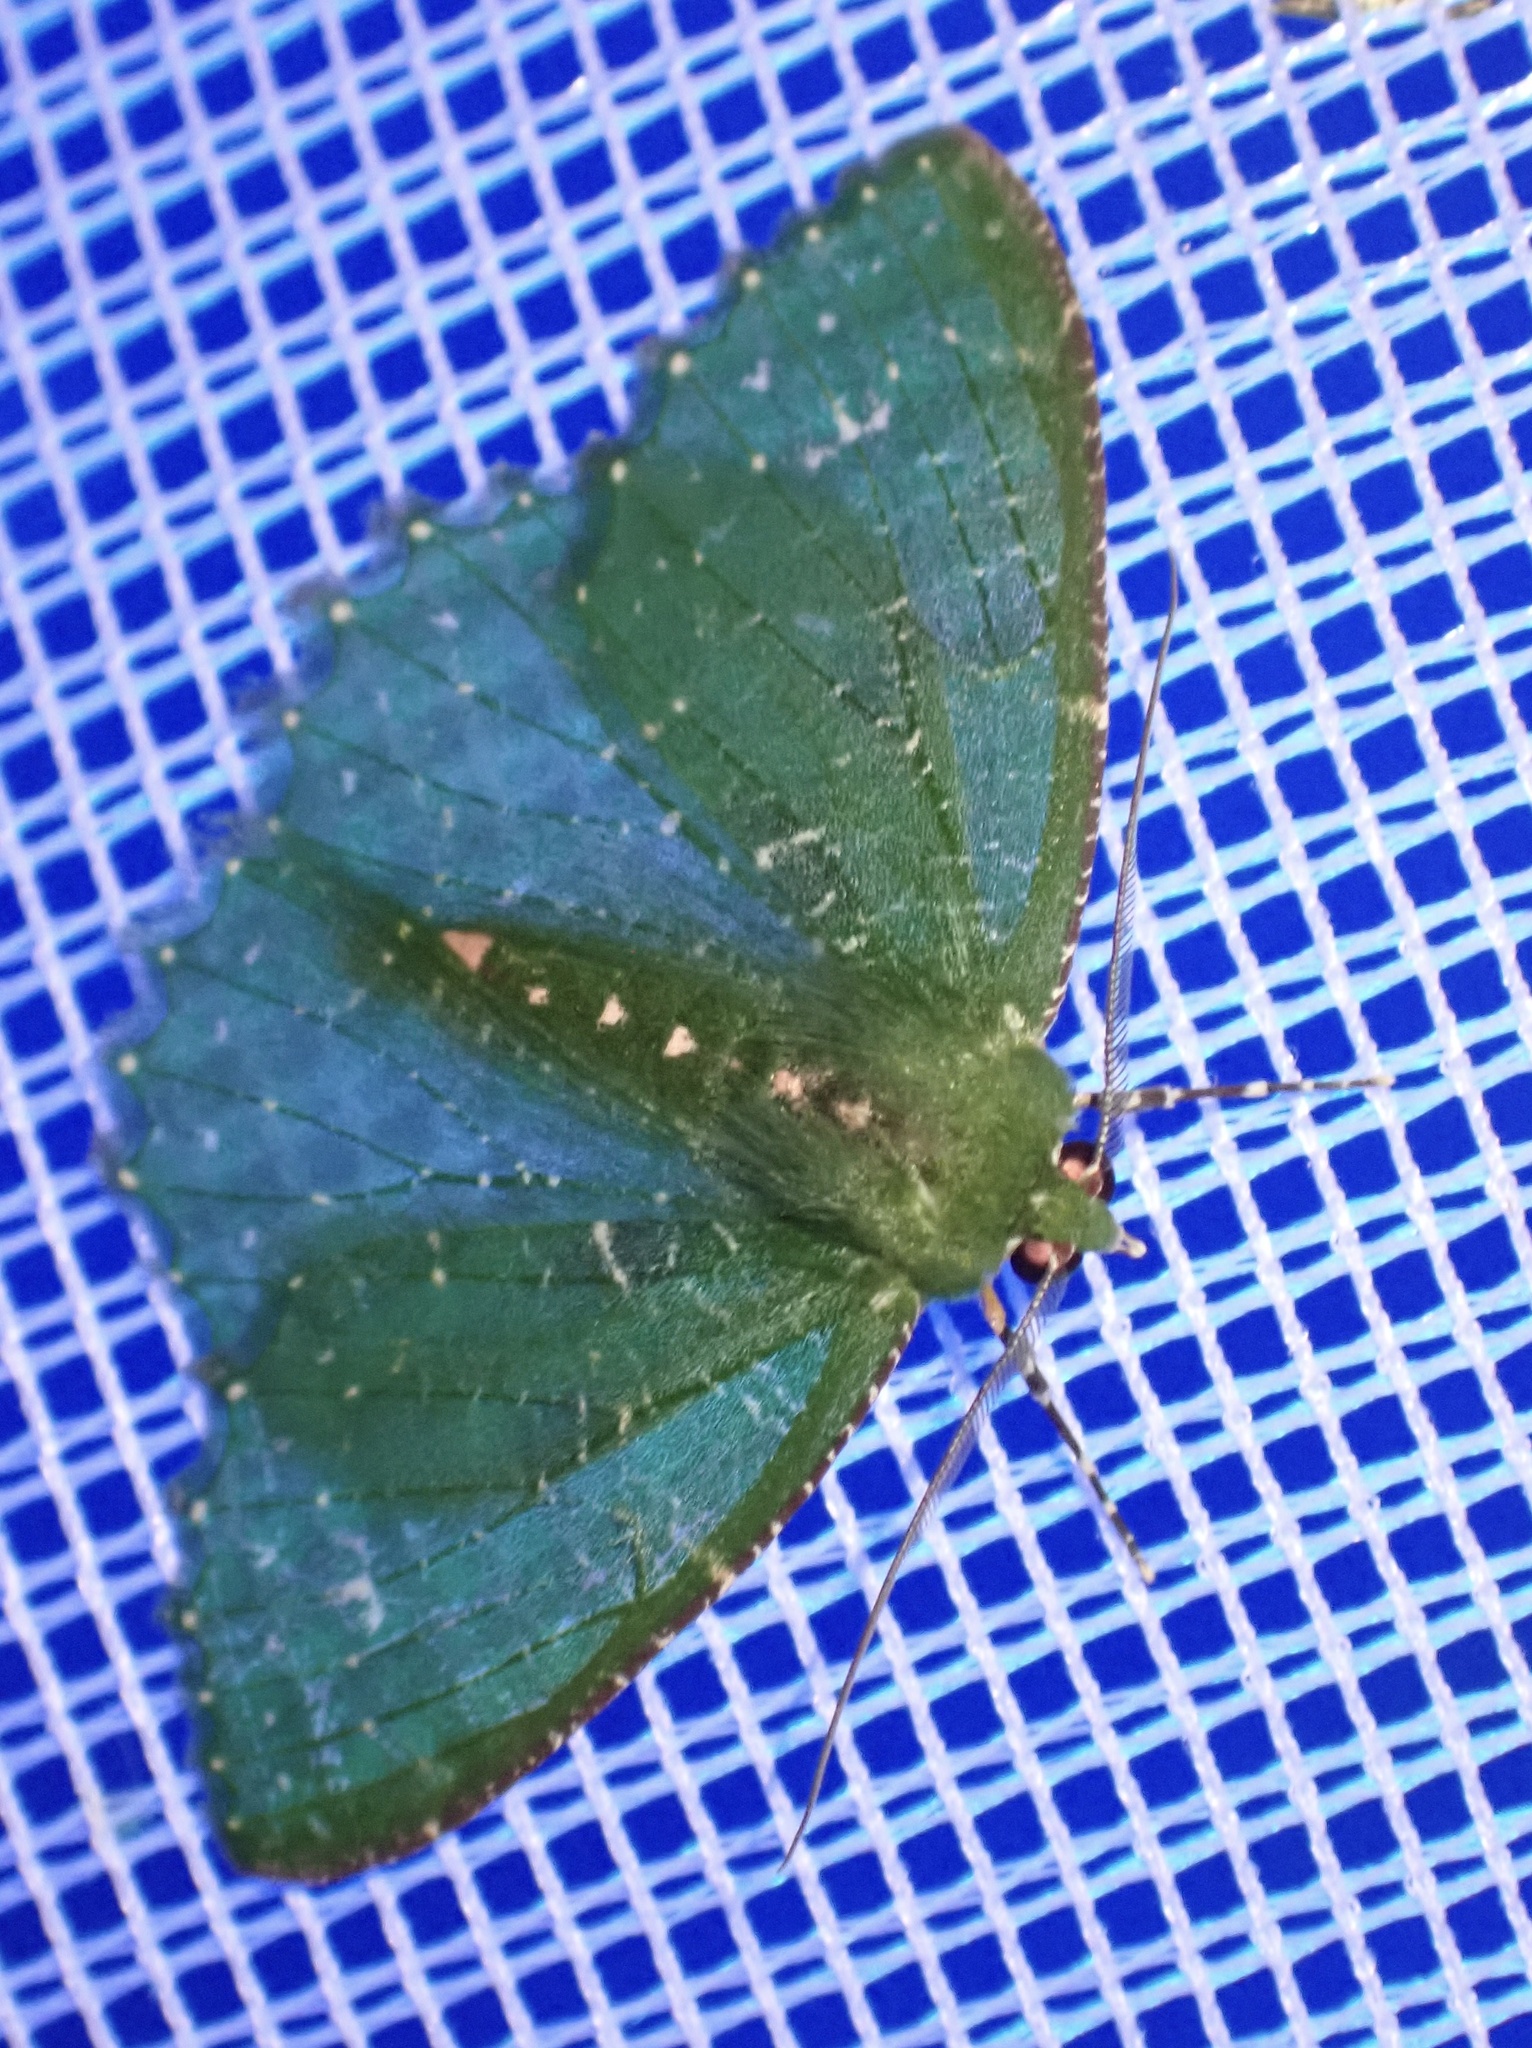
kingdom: Animalia
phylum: Arthropoda
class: Insecta
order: Lepidoptera
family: Geometridae
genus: Eucyclodes
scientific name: Eucyclodes rufipunctata
